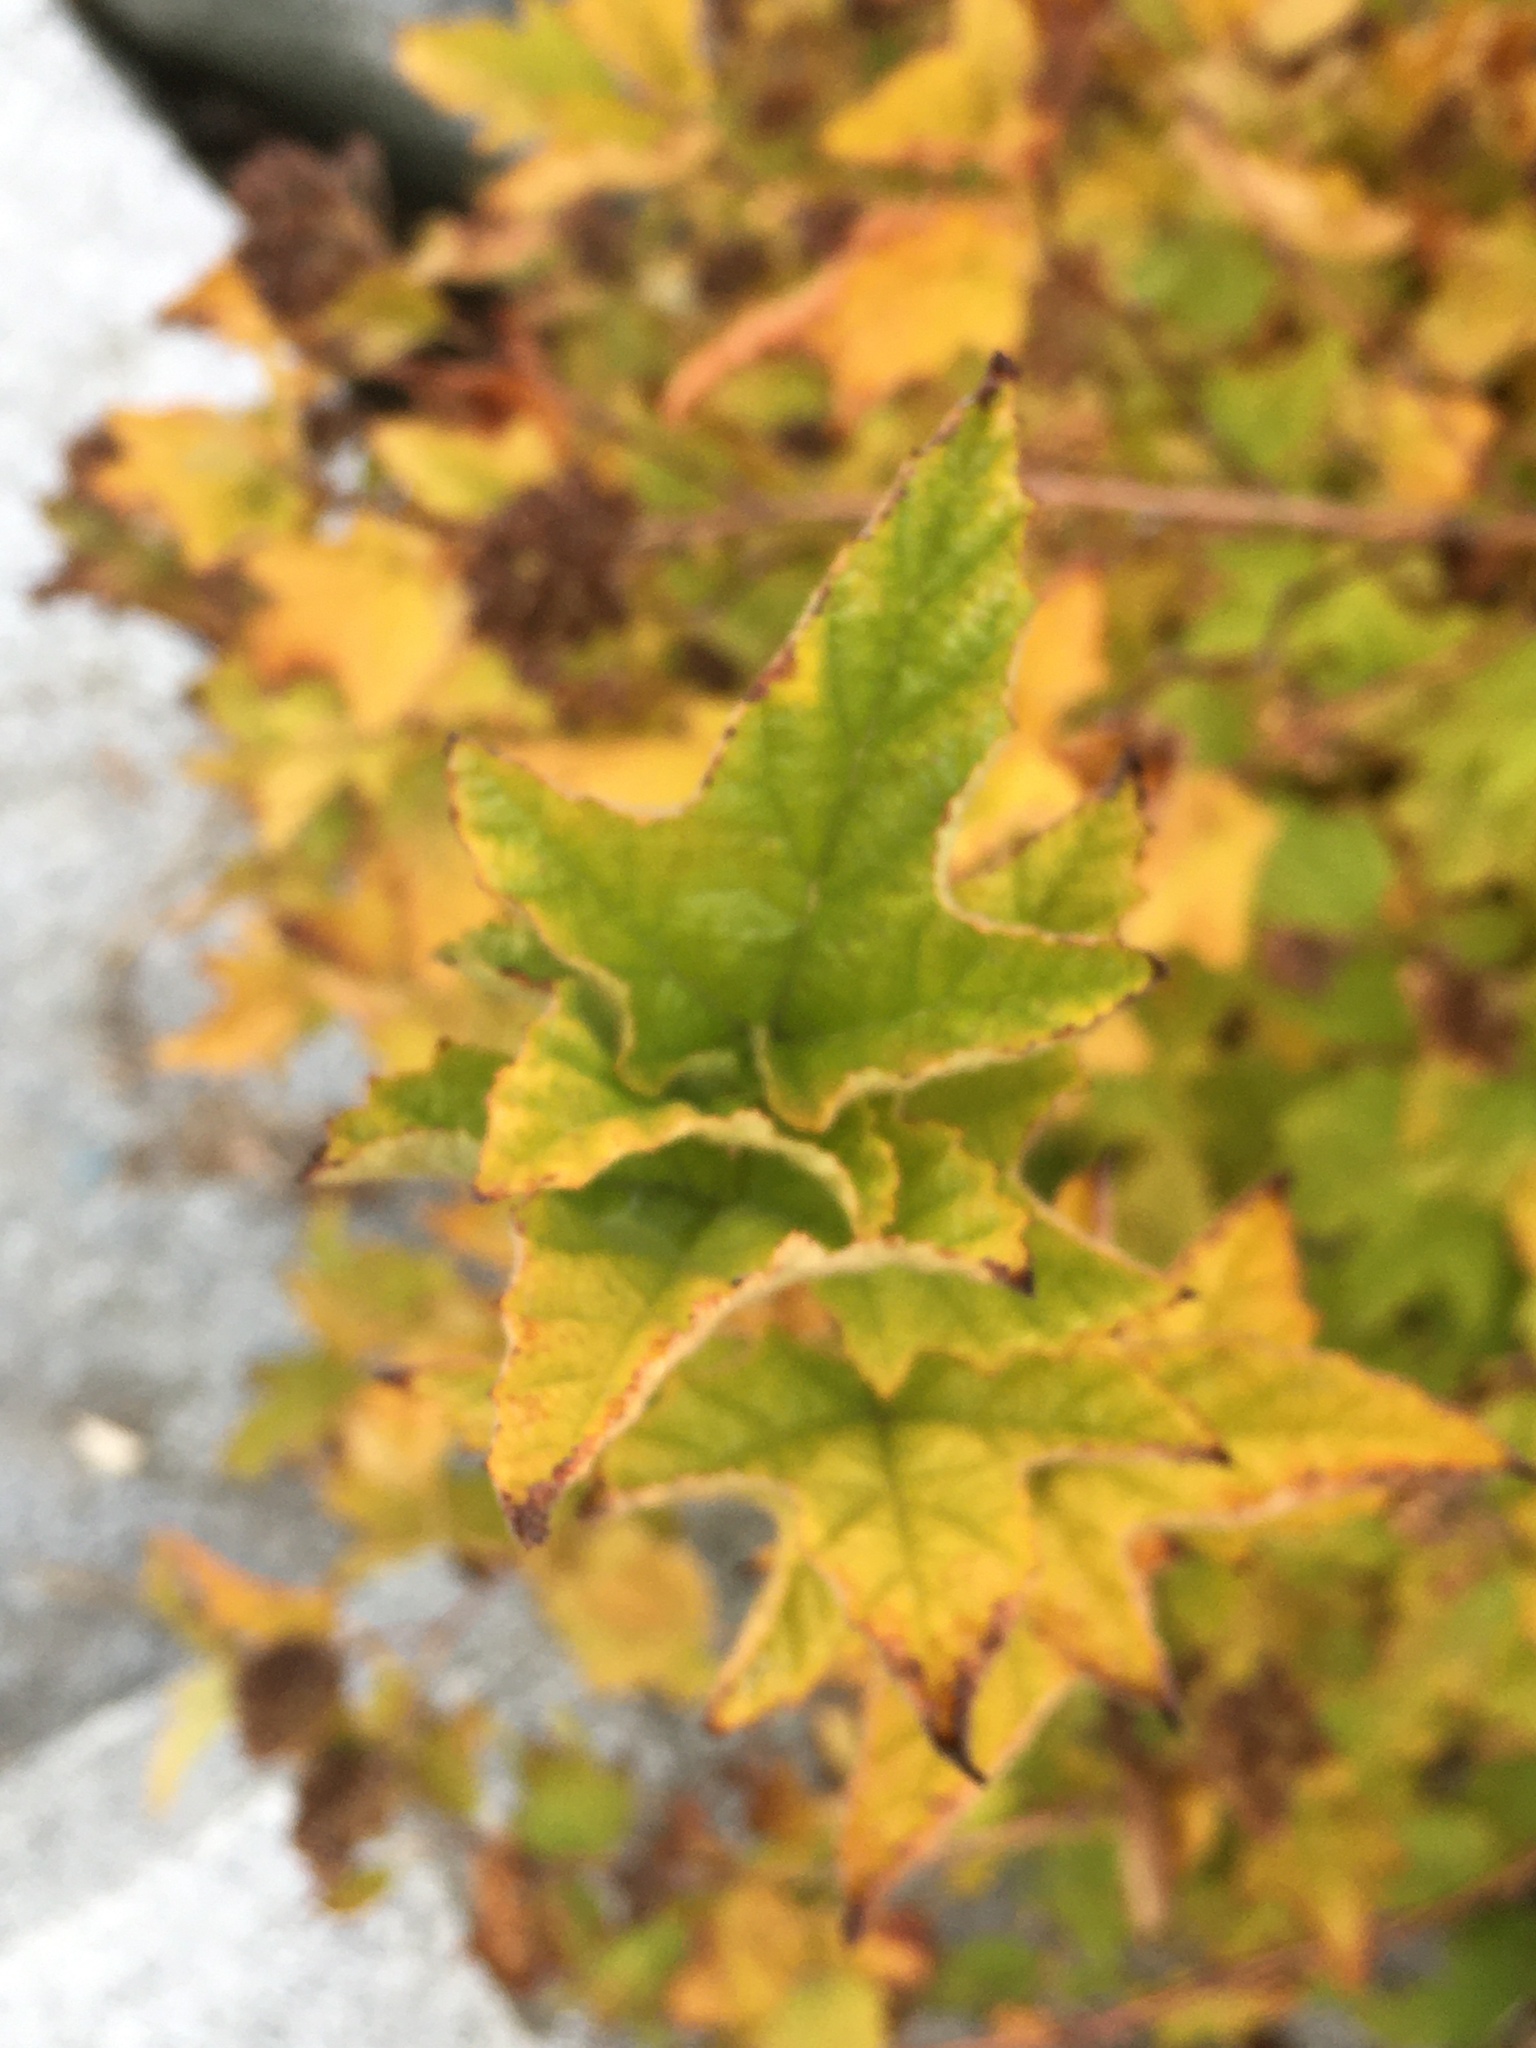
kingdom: Plantae
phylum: Tracheophyta
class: Magnoliopsida
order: Rosales
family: Rosaceae
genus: Physocarpus
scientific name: Physocarpus capitatus
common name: Pacific ninebark
